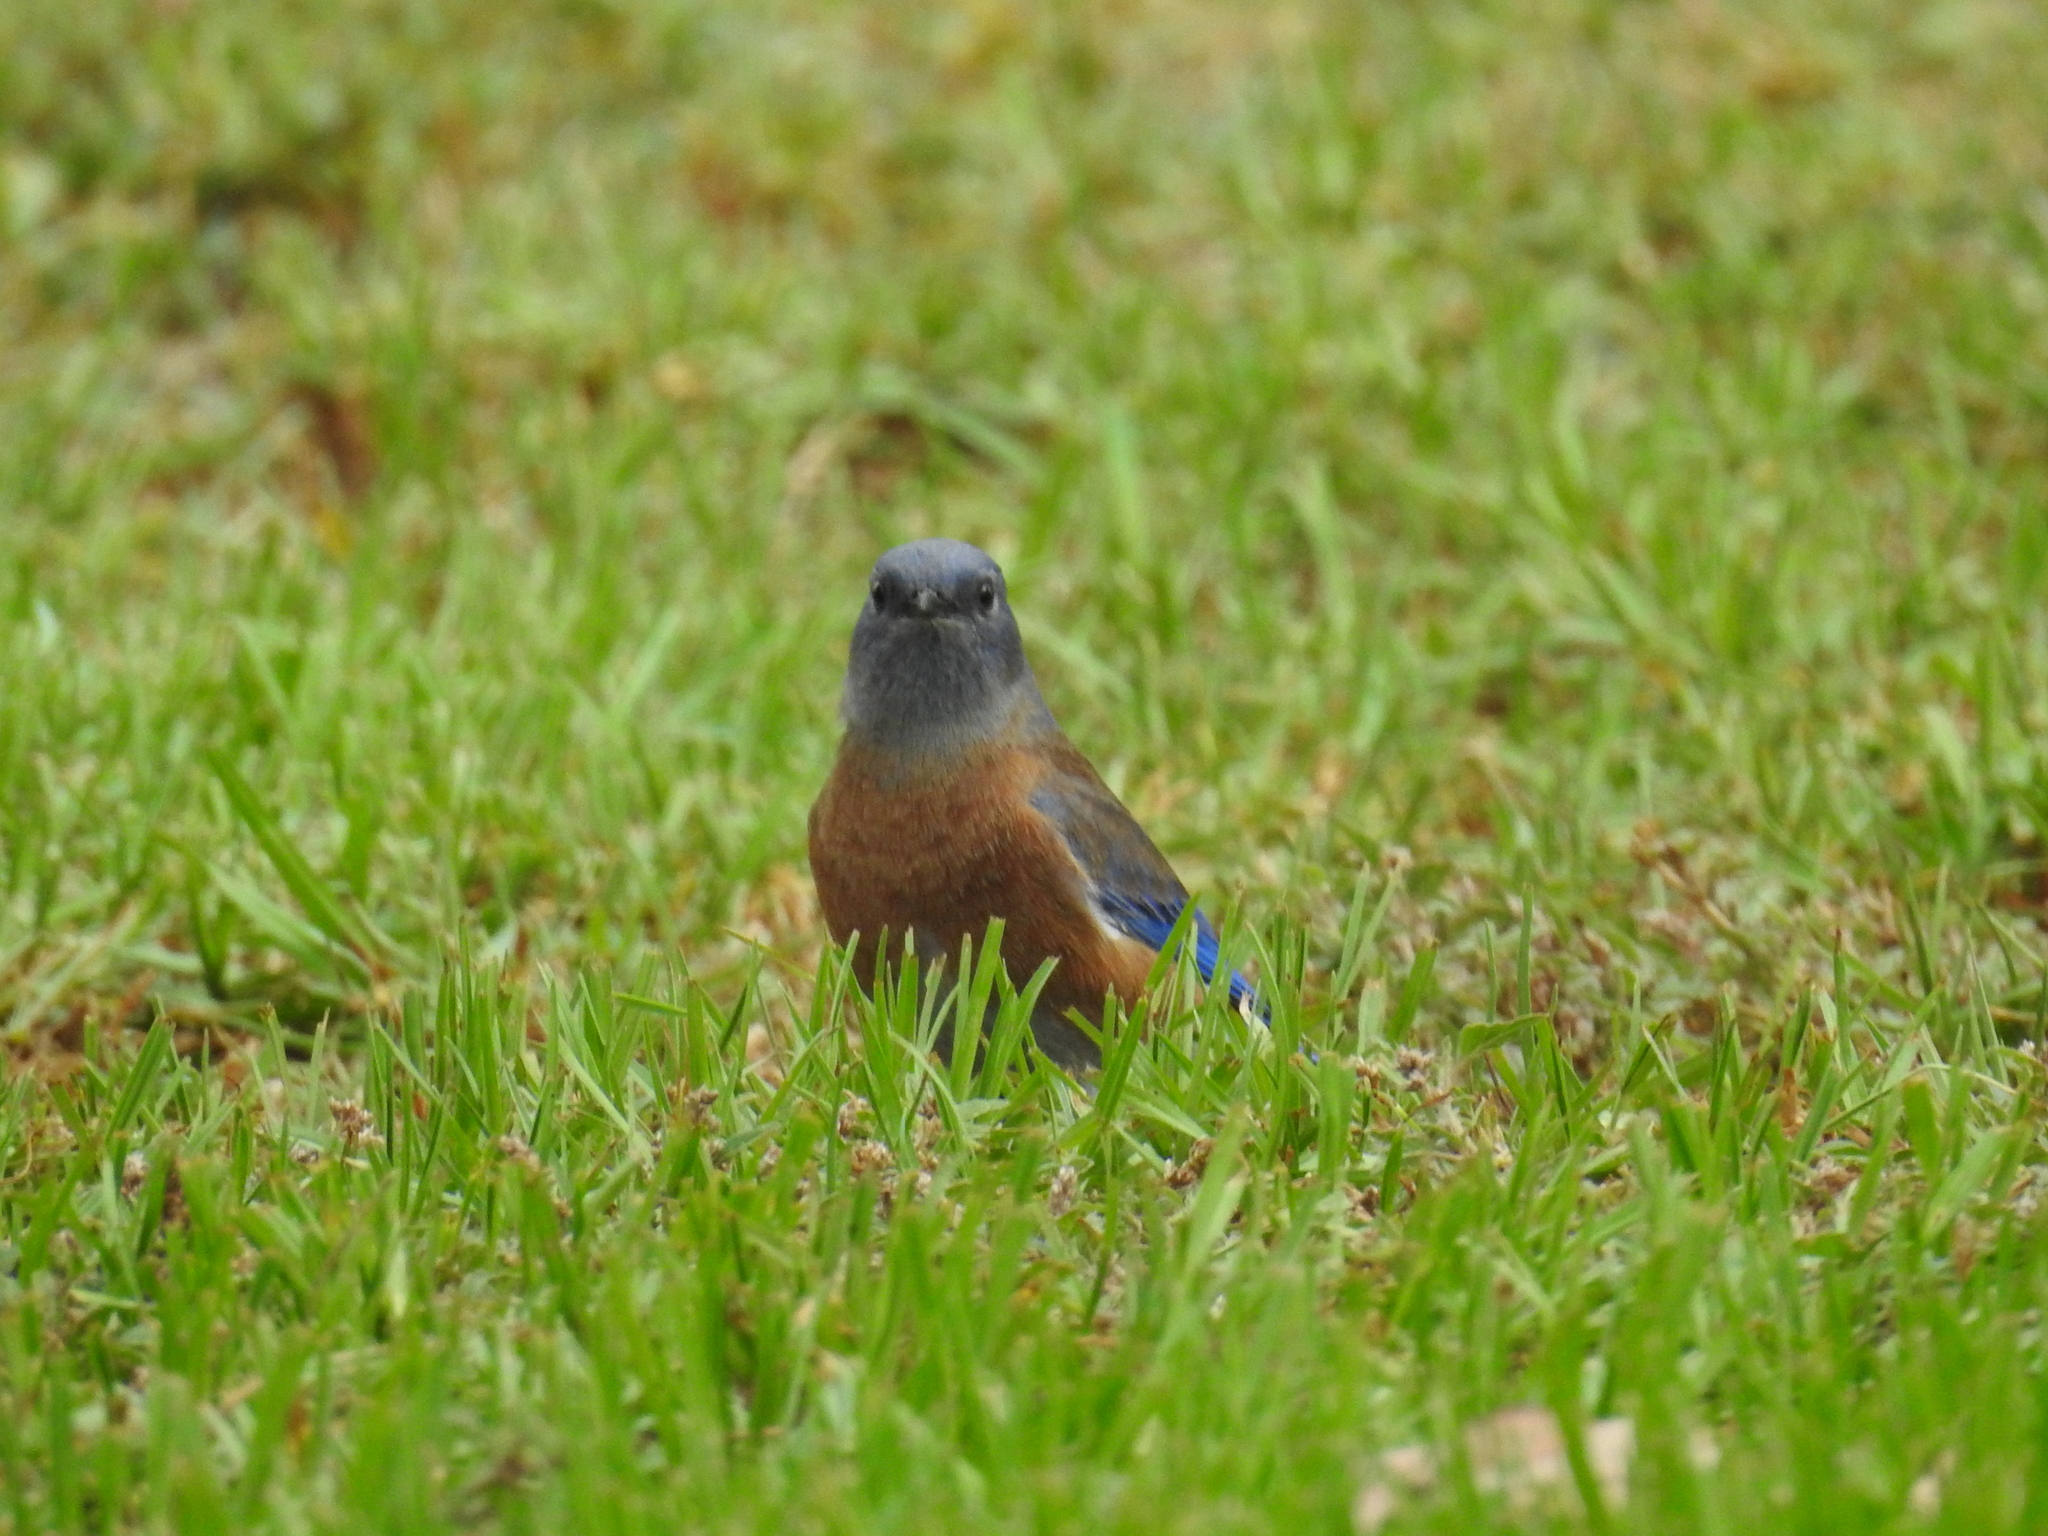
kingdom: Animalia
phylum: Chordata
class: Aves
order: Passeriformes
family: Turdidae
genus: Sialia
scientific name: Sialia mexicana
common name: Western bluebird
